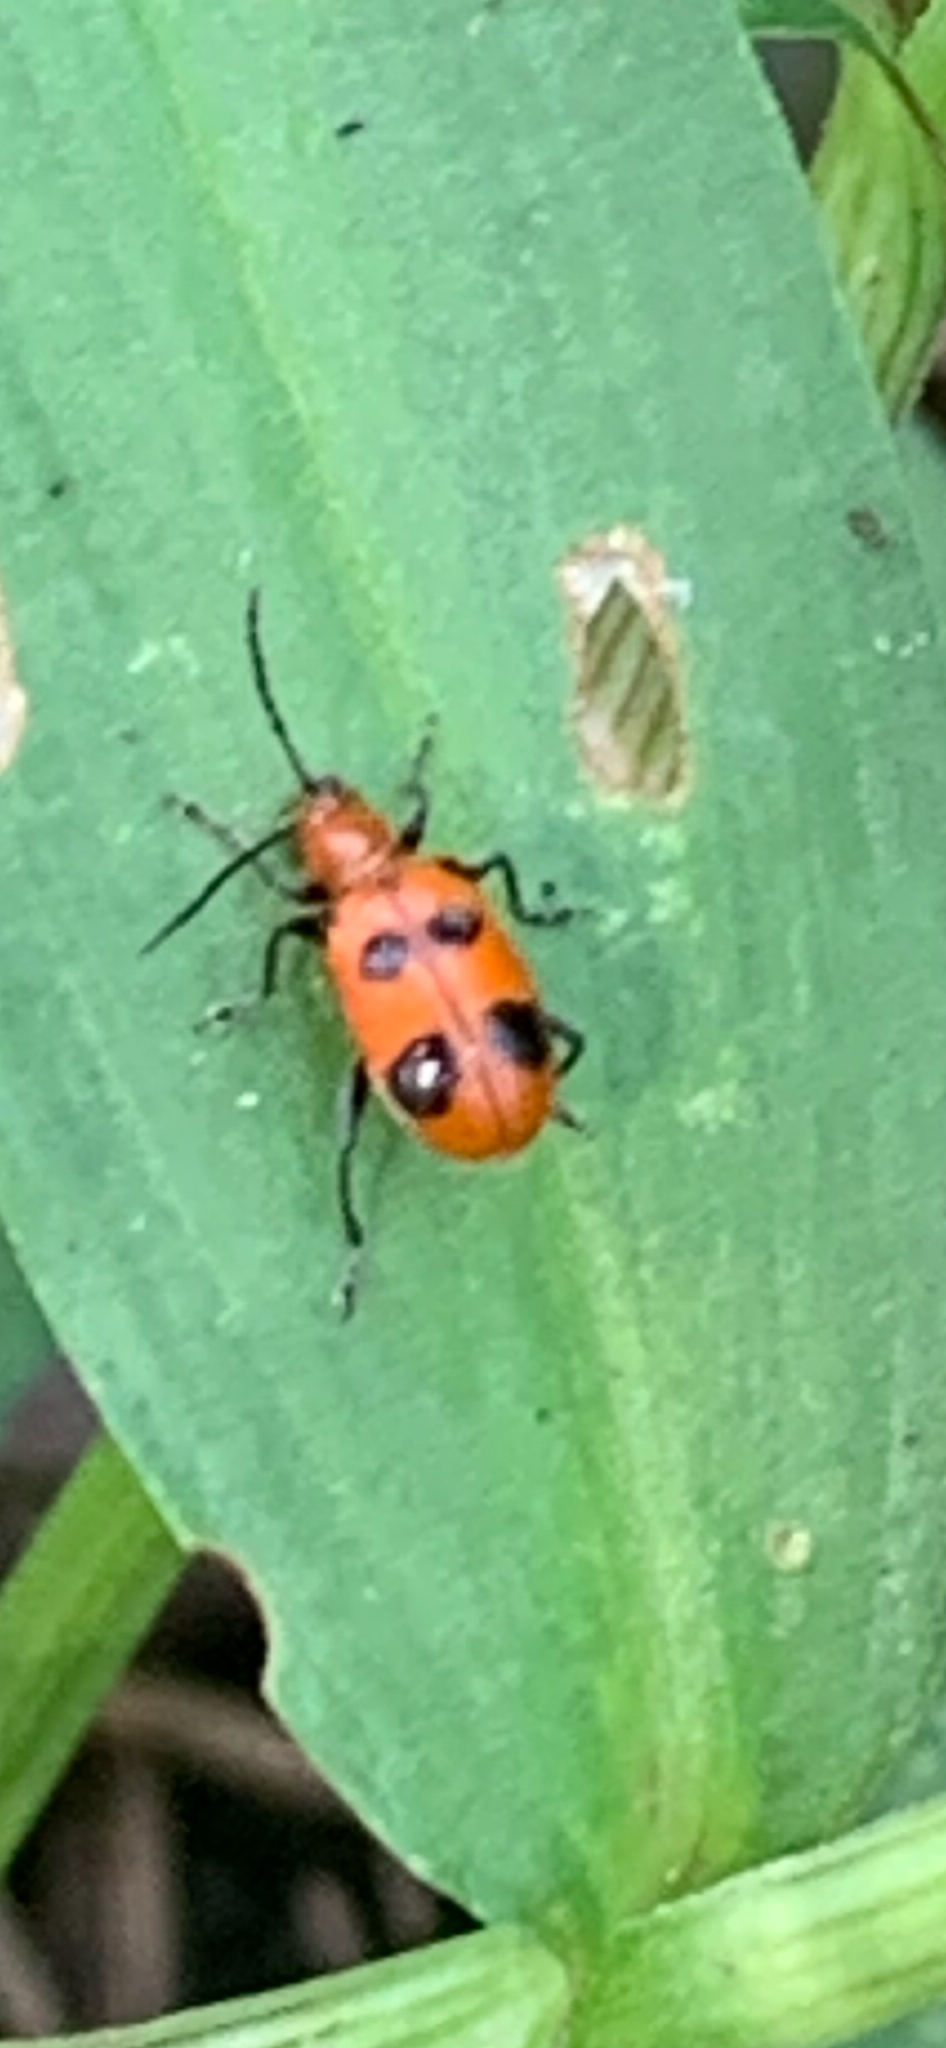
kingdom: Animalia
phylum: Arthropoda
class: Insecta
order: Coleoptera
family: Chrysomelidae
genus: Neolema
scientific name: Neolema sexpunctata
